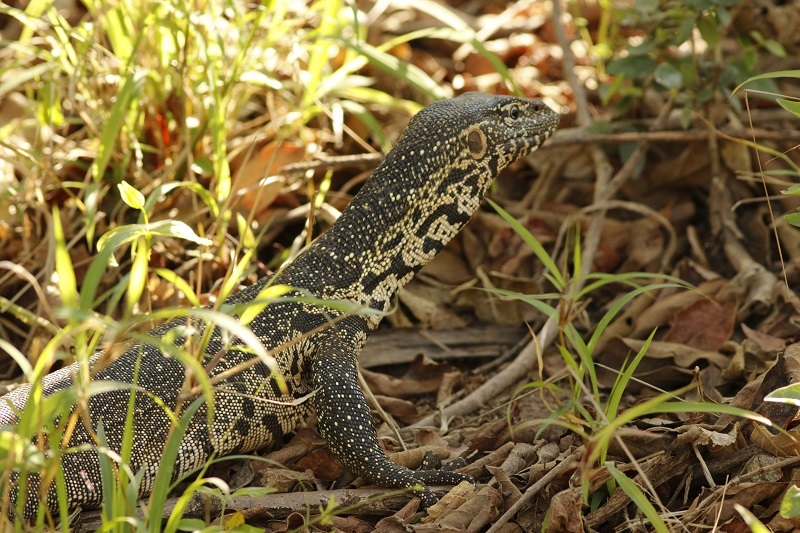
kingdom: Animalia
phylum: Chordata
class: Squamata
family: Varanidae
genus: Varanus
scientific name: Varanus niloticus
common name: Nile monitor
